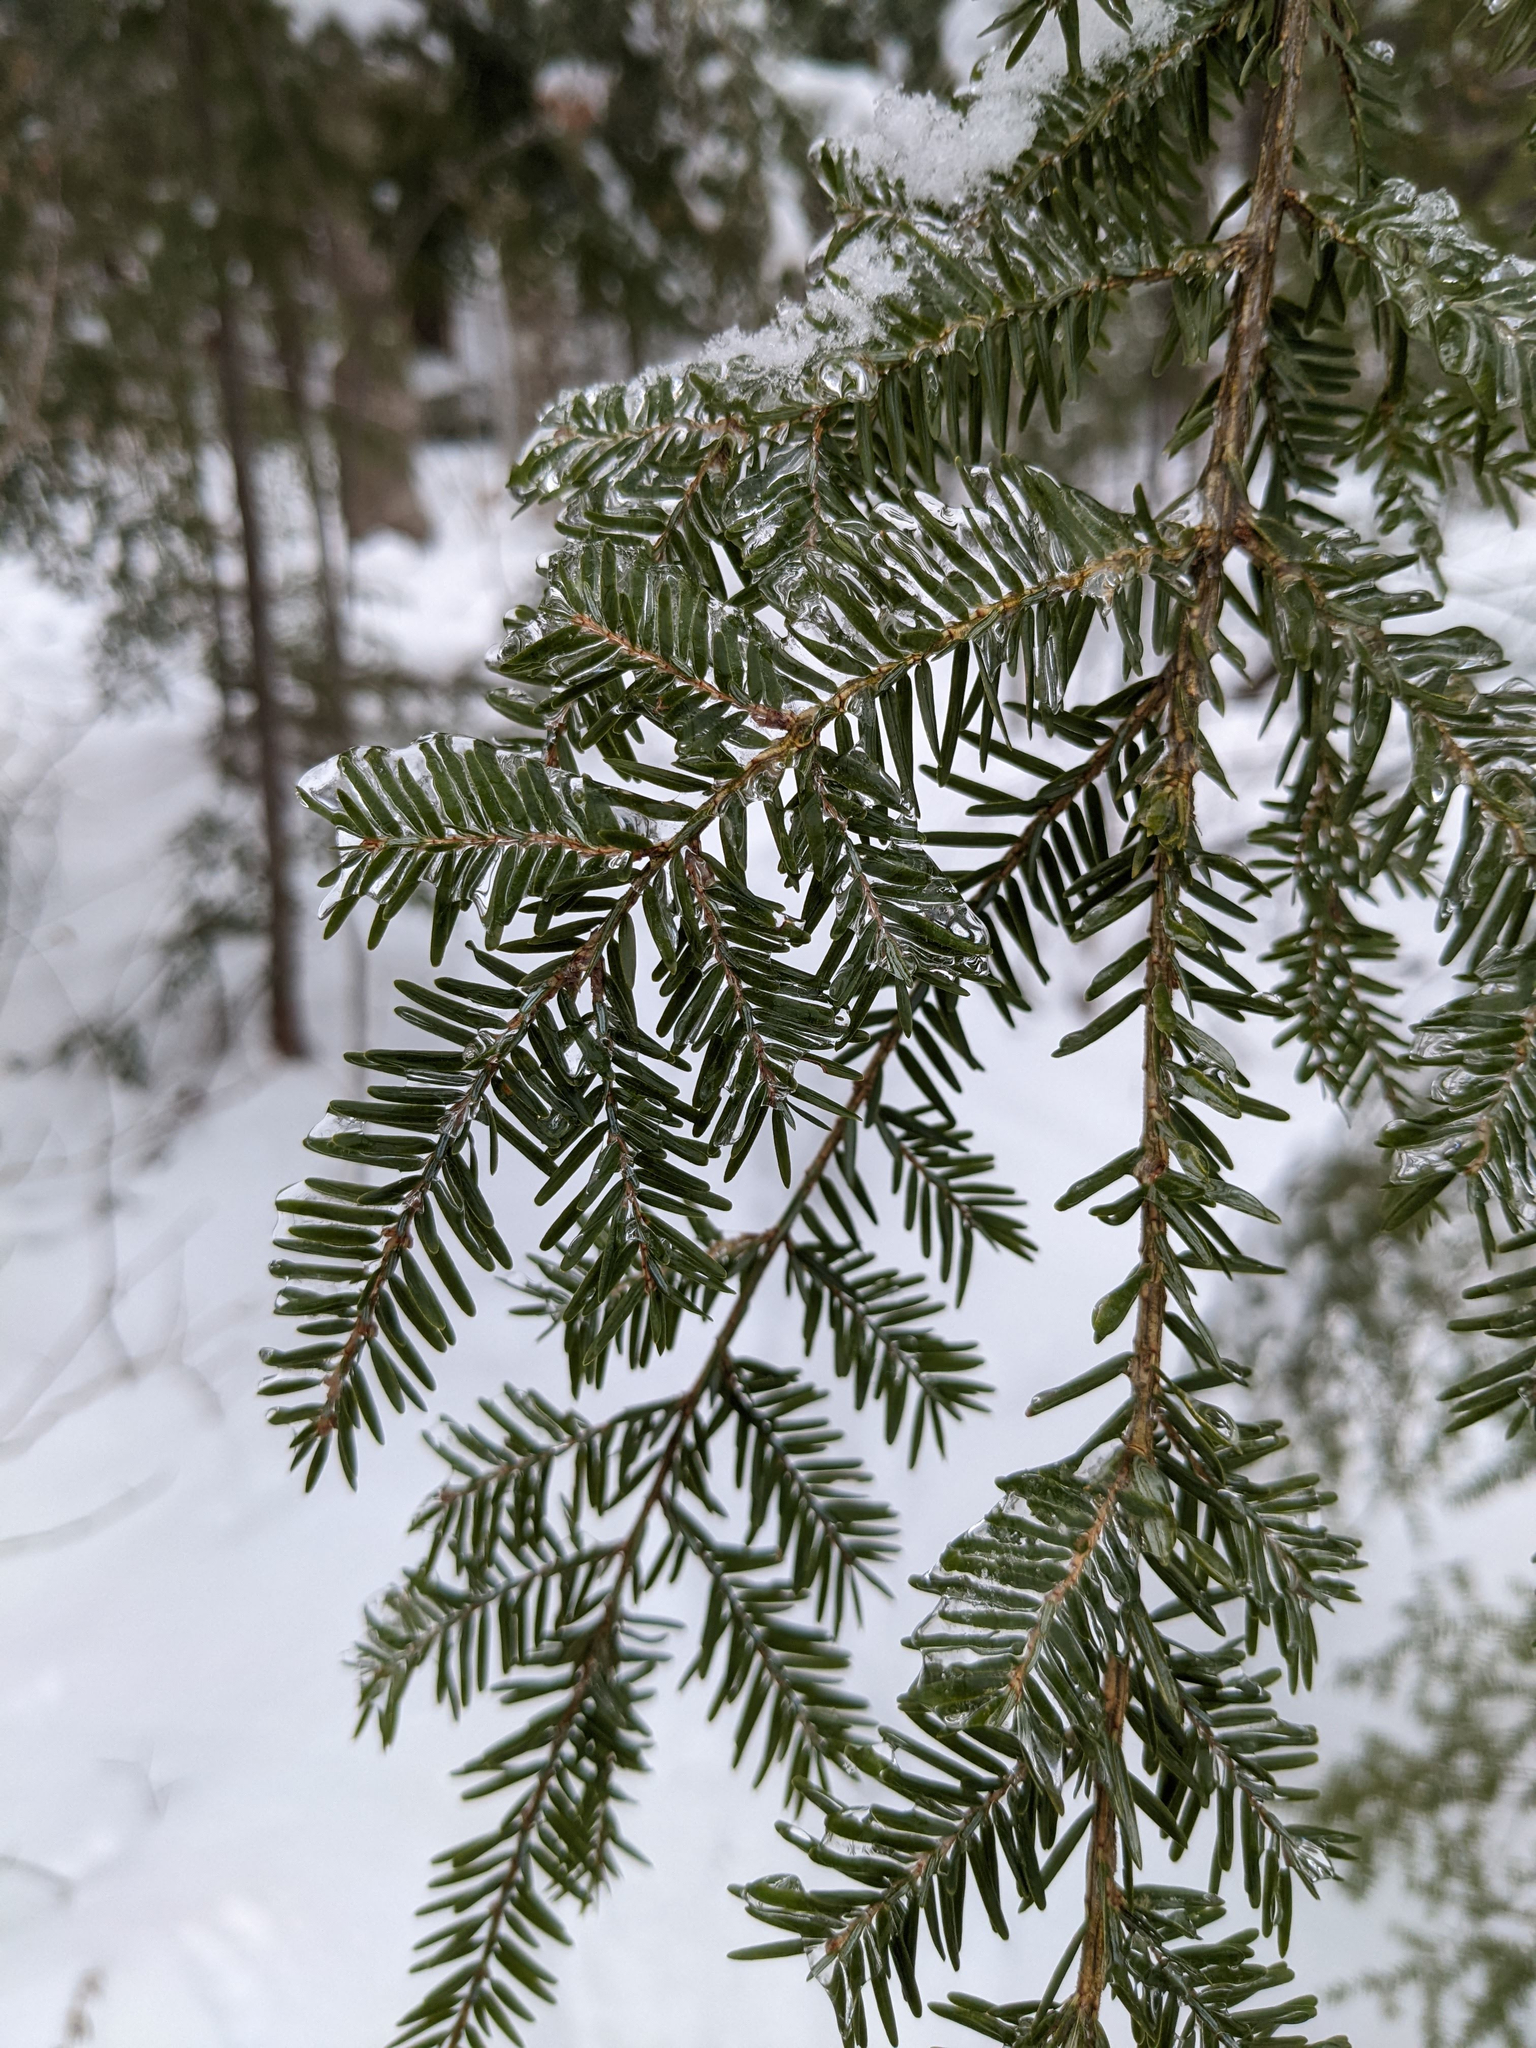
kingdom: Plantae
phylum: Tracheophyta
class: Pinopsida
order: Pinales
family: Pinaceae
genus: Tsuga
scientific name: Tsuga canadensis
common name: Eastern hemlock
